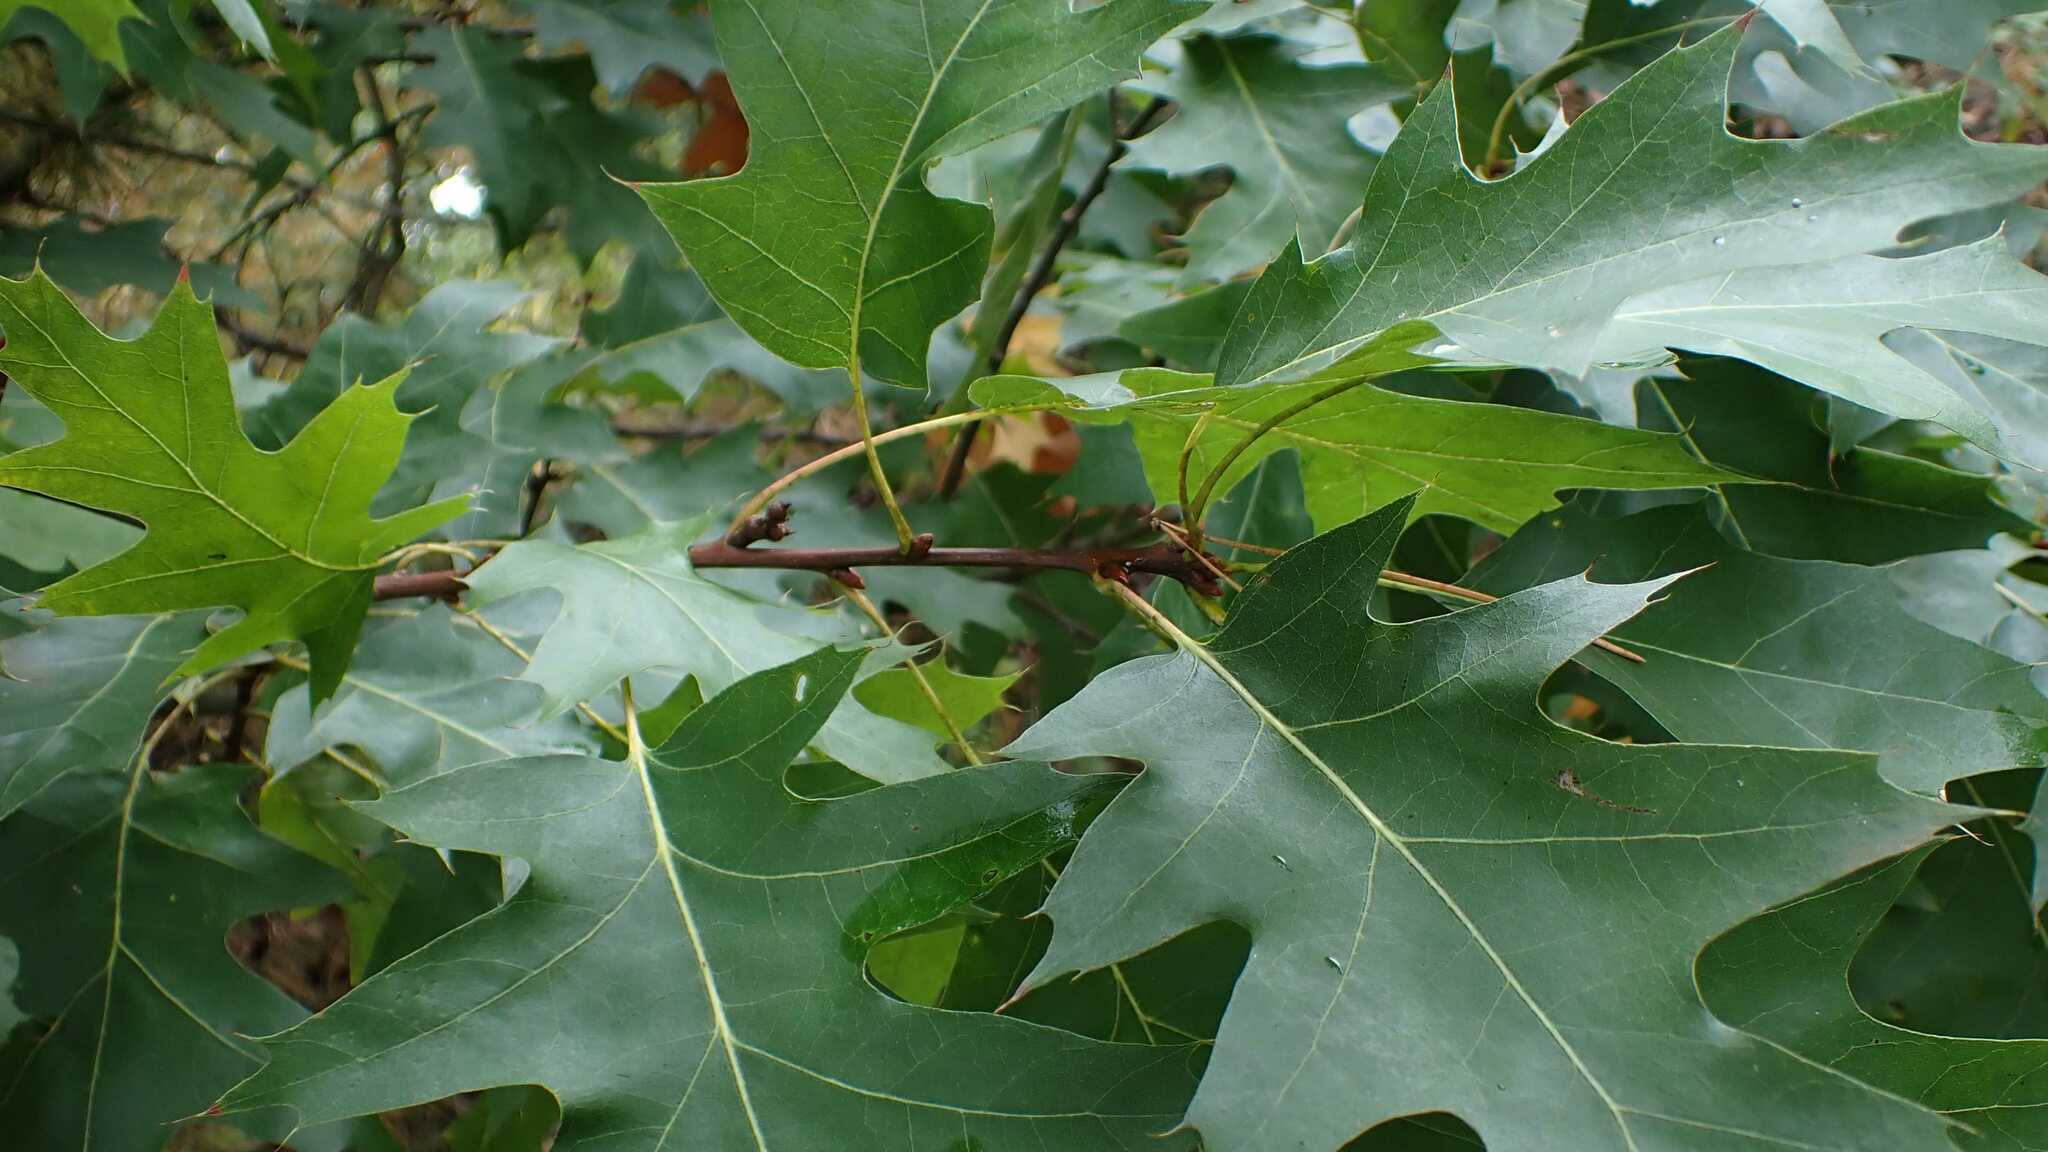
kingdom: Plantae
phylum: Tracheophyta
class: Magnoliopsida
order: Fagales
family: Fagaceae
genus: Quercus
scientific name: Quercus rubra
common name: Red oak
